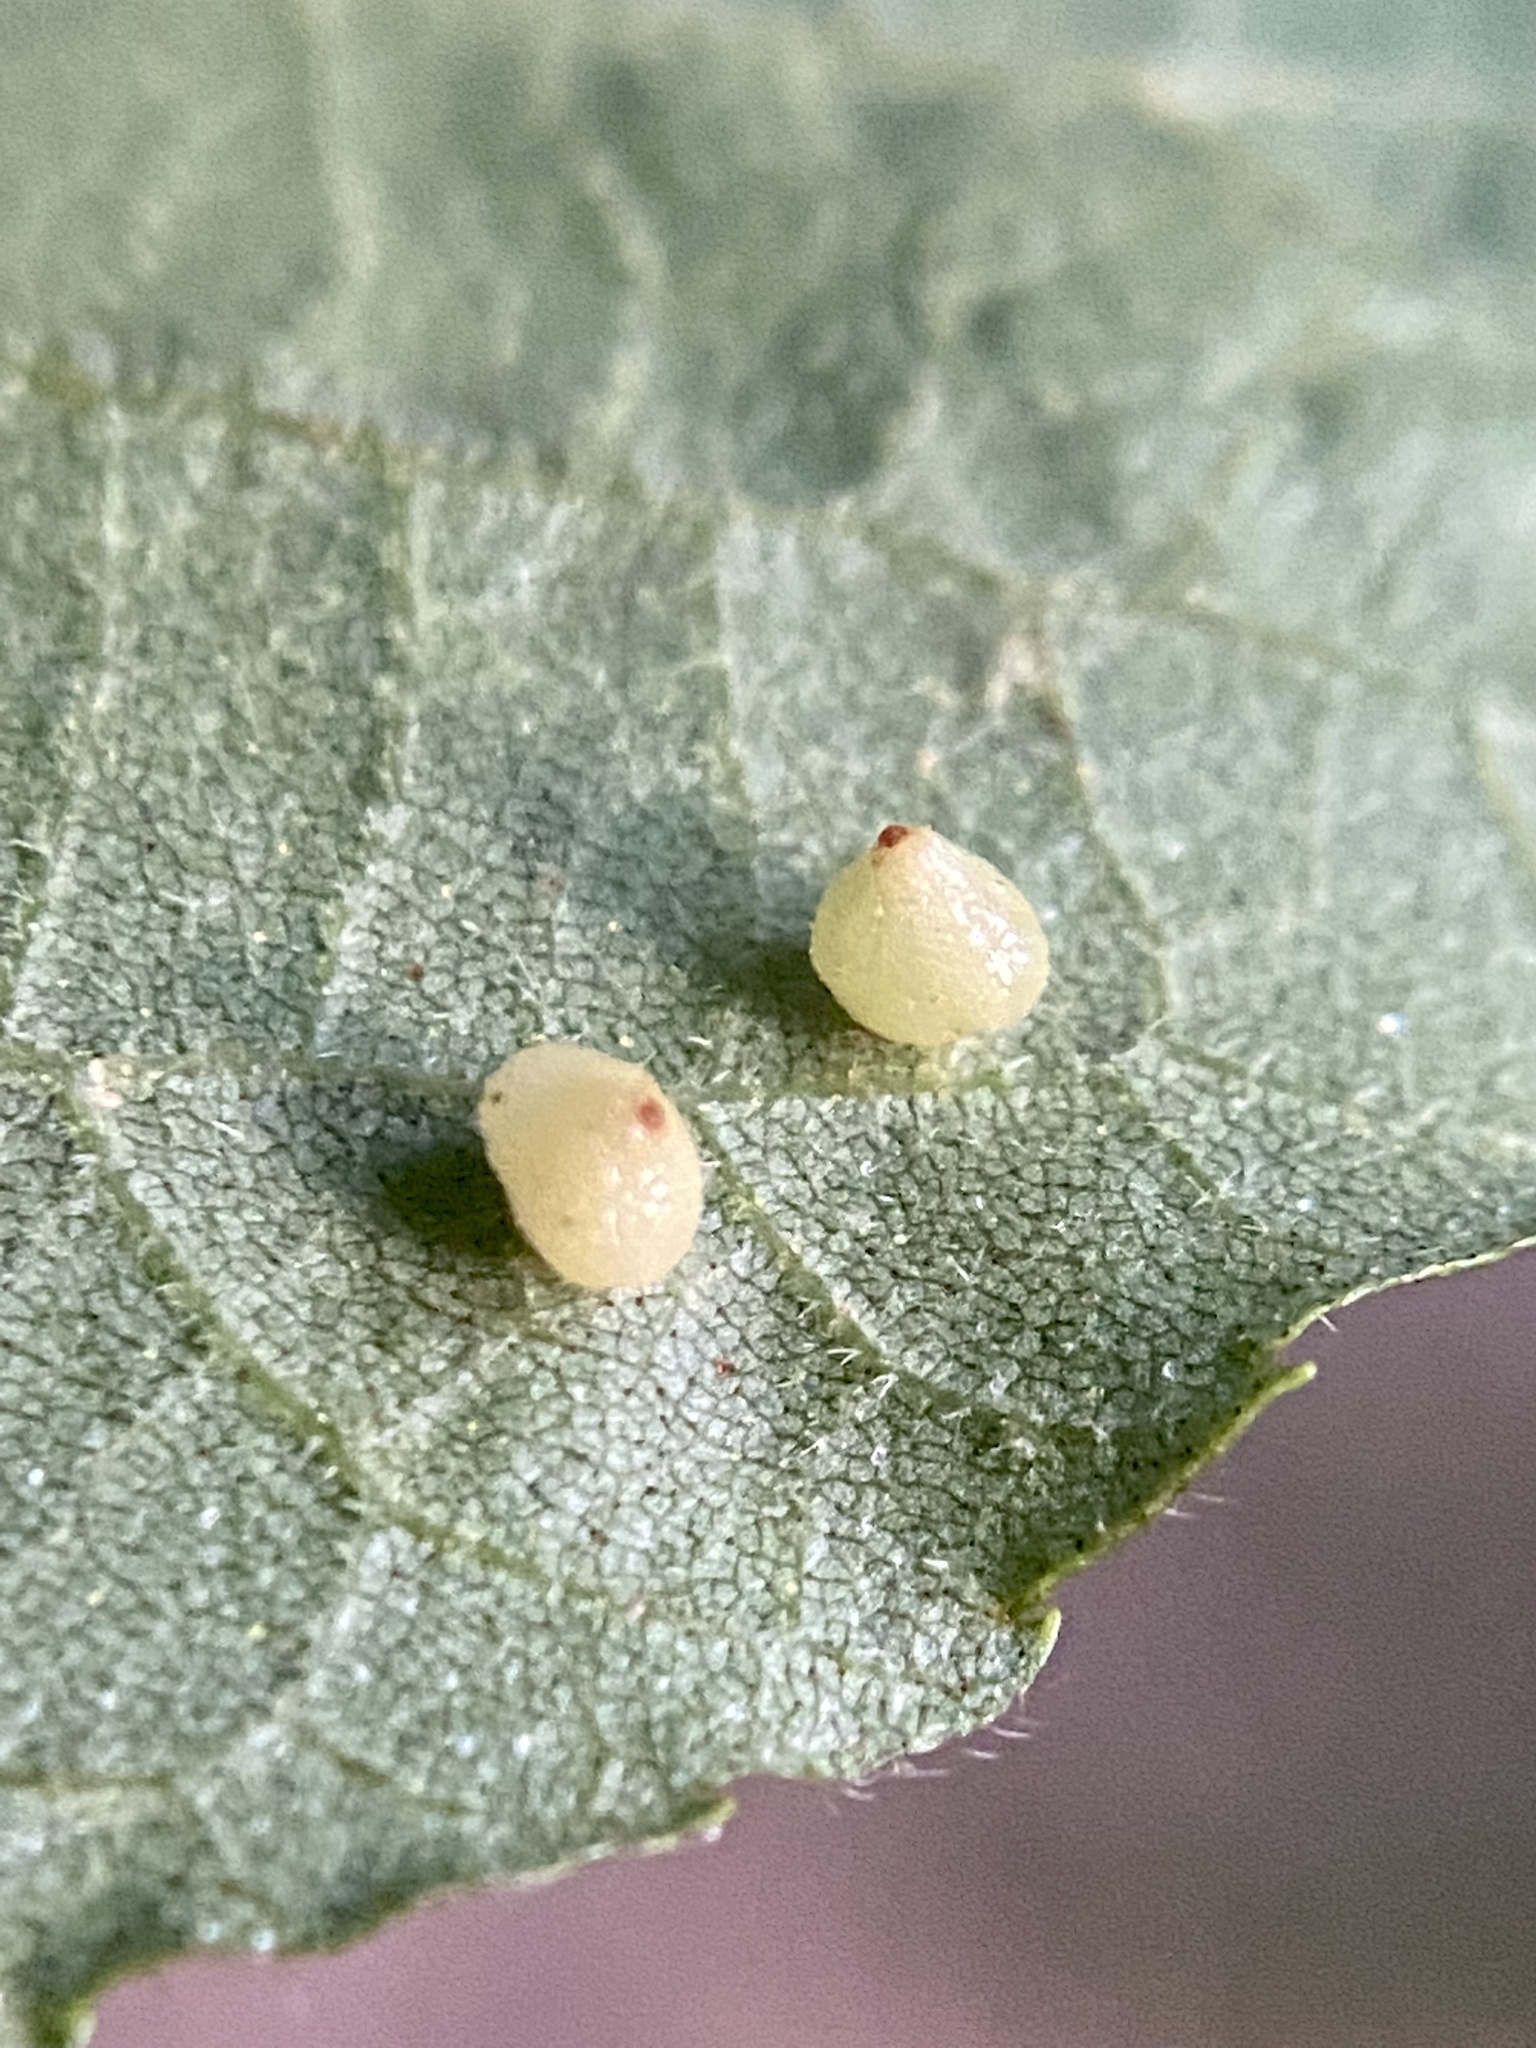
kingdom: Animalia
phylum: Arthropoda
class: Insecta
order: Diptera
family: Cecidomyiidae
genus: Caryomyia
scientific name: Caryomyia caryae
